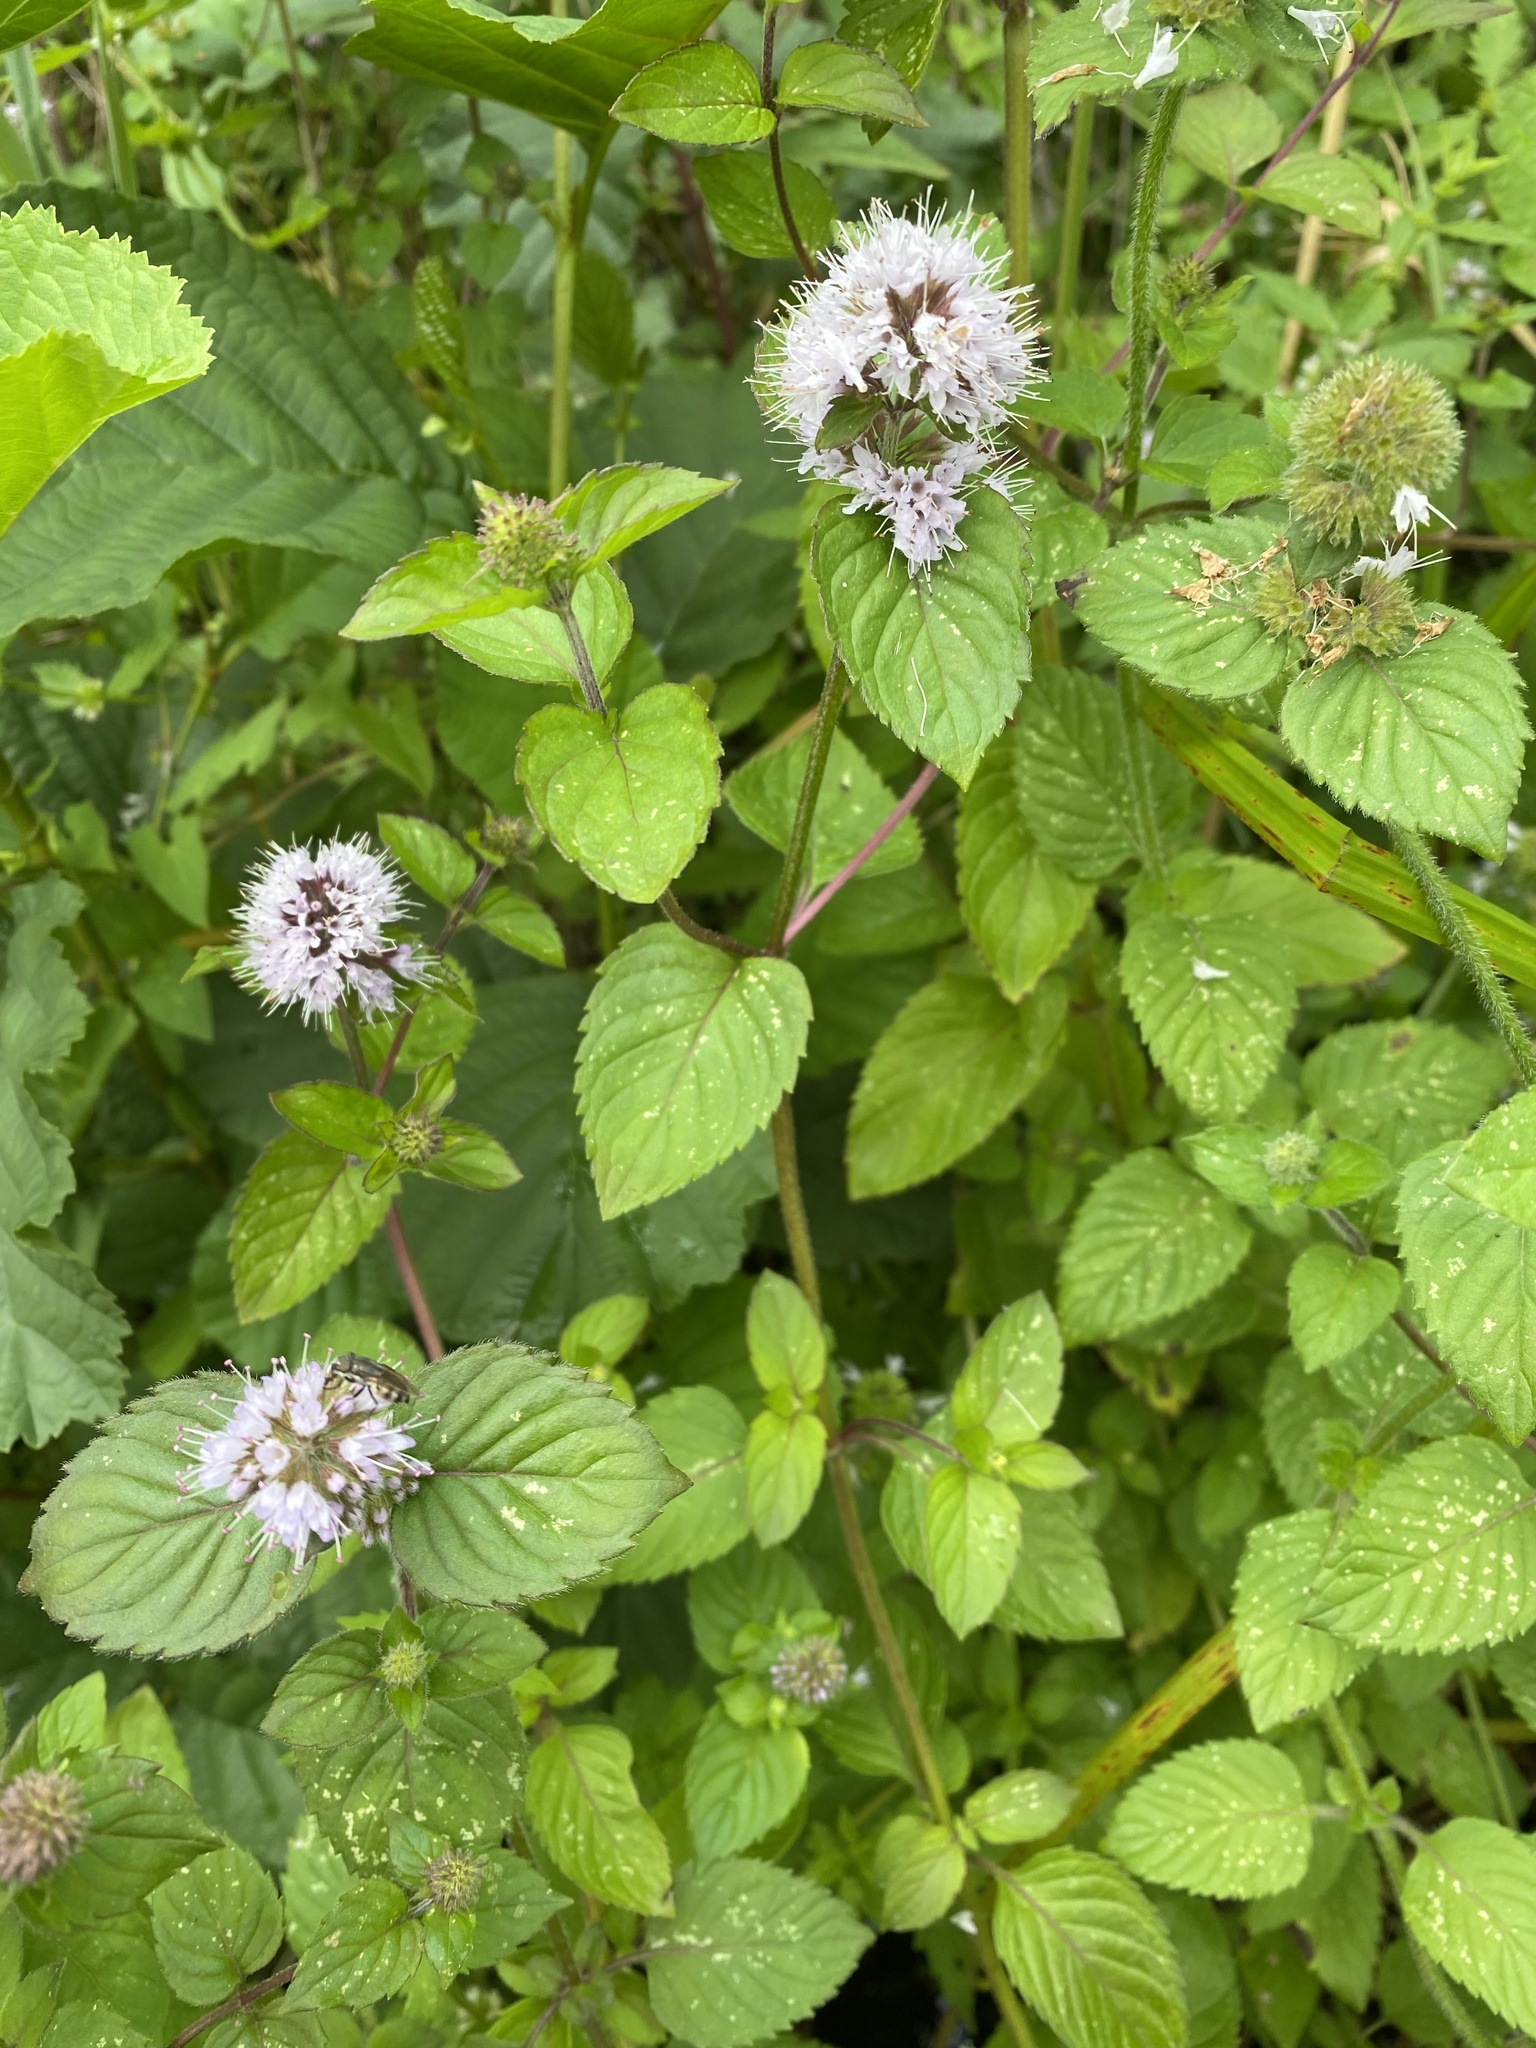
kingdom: Plantae
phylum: Tracheophyta
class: Magnoliopsida
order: Lamiales
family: Lamiaceae
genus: Mentha
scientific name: Mentha aquatica
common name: Water mint
